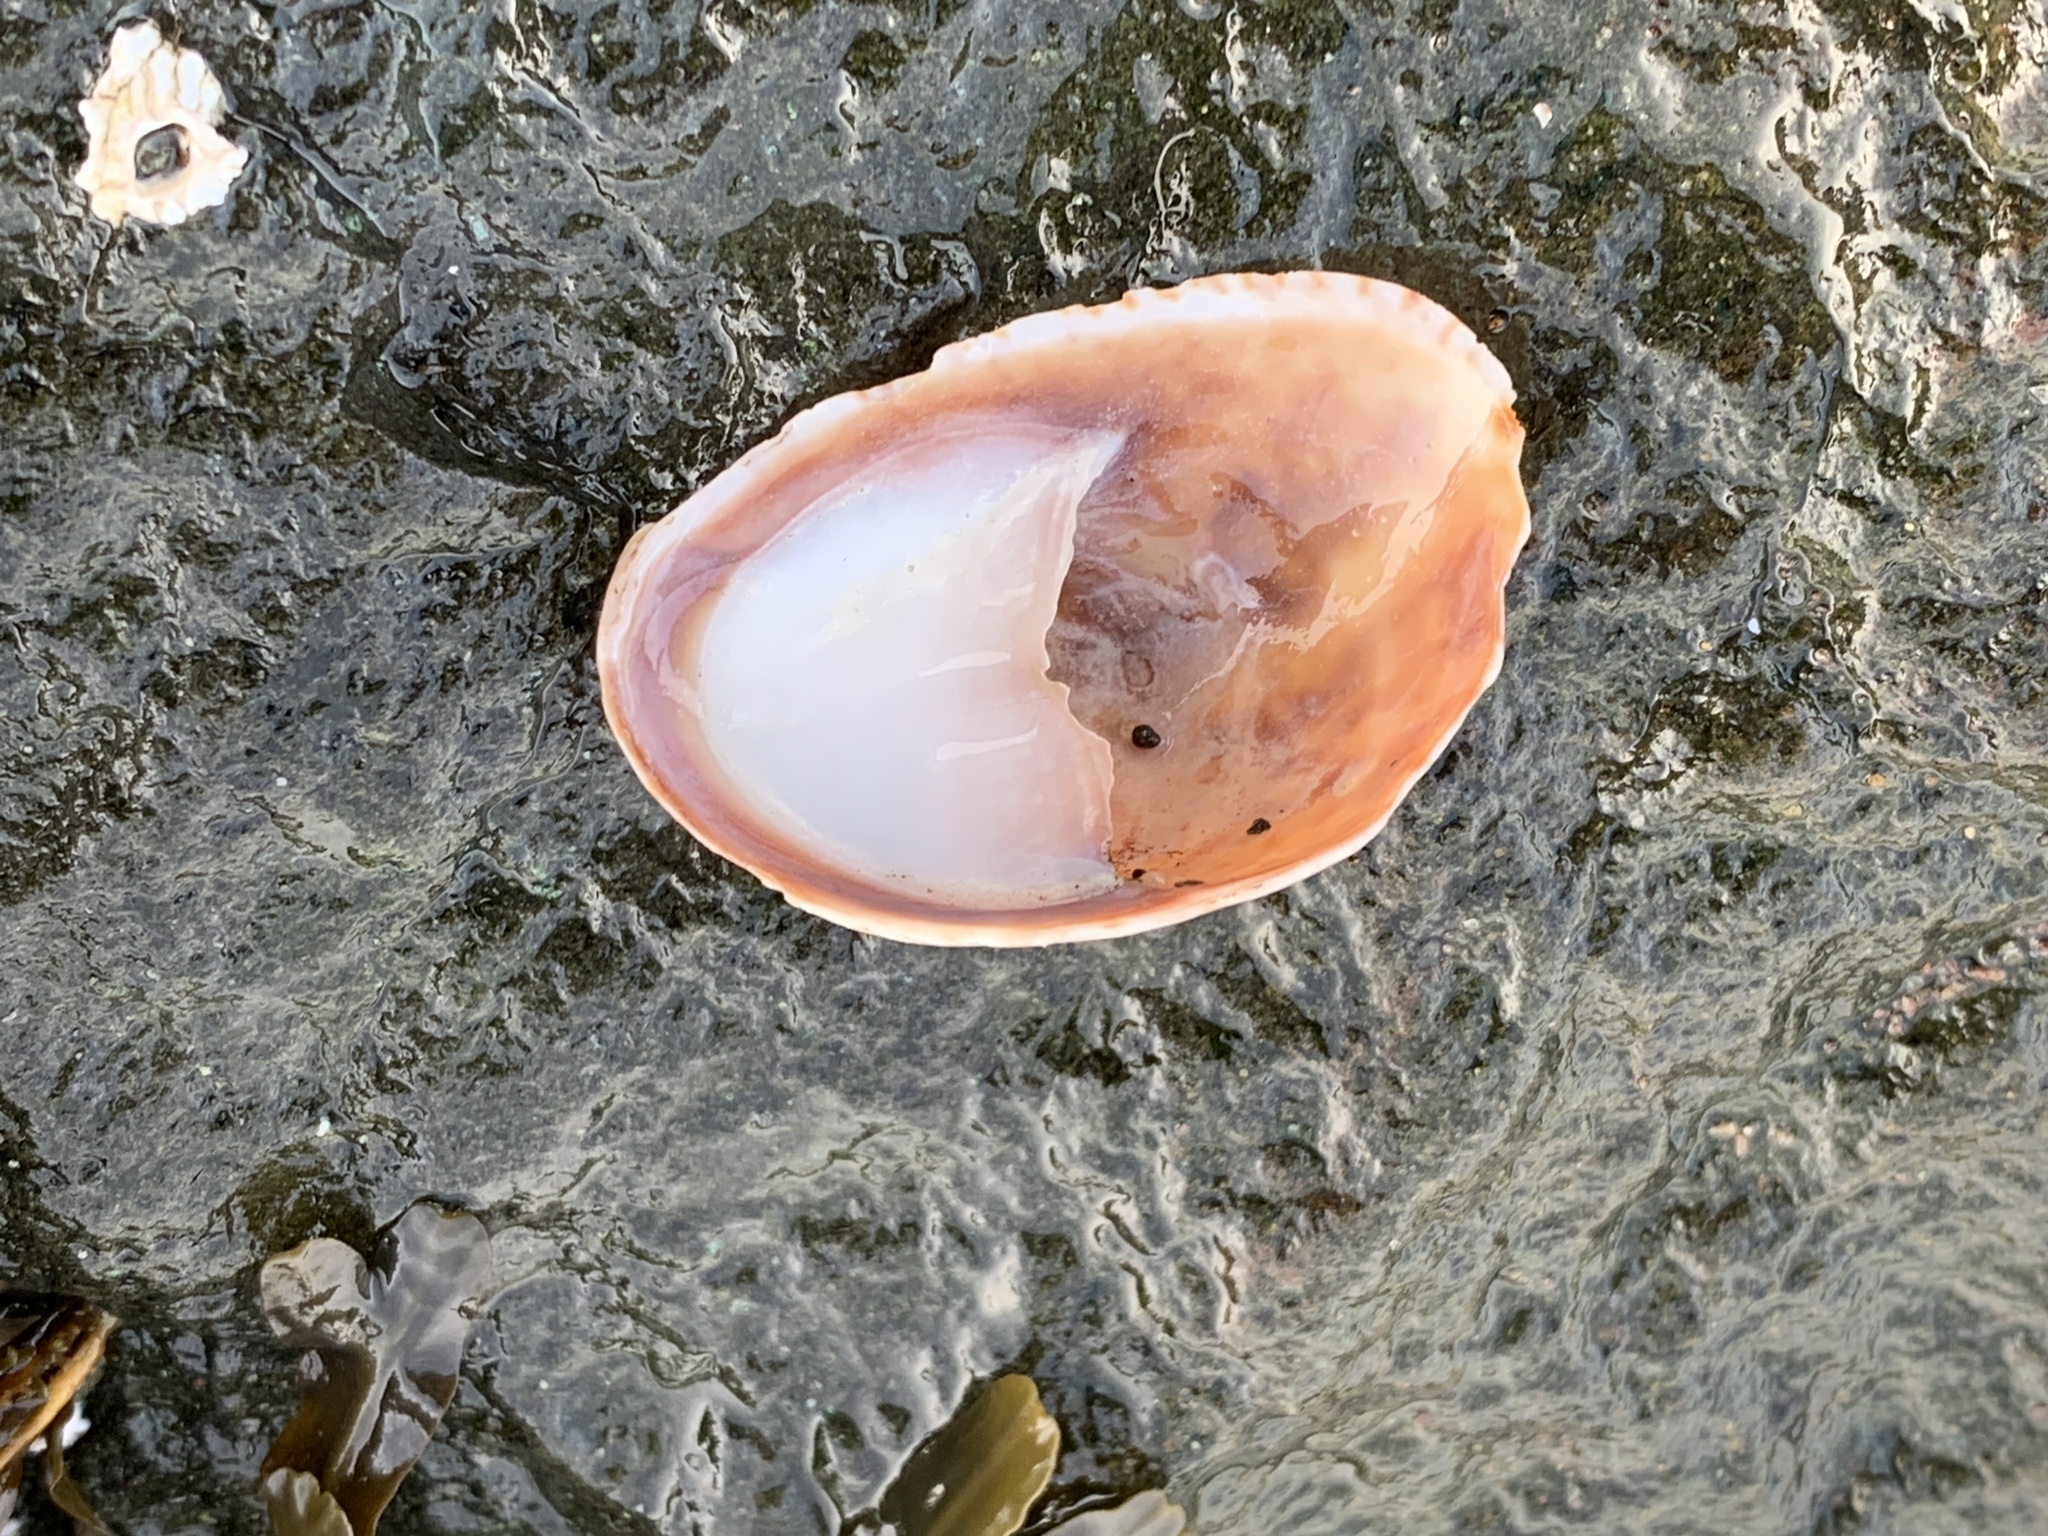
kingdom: Animalia
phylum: Mollusca
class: Gastropoda
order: Littorinimorpha
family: Calyptraeidae
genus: Crepidula
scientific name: Crepidula fornicata
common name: Slipper limpet
